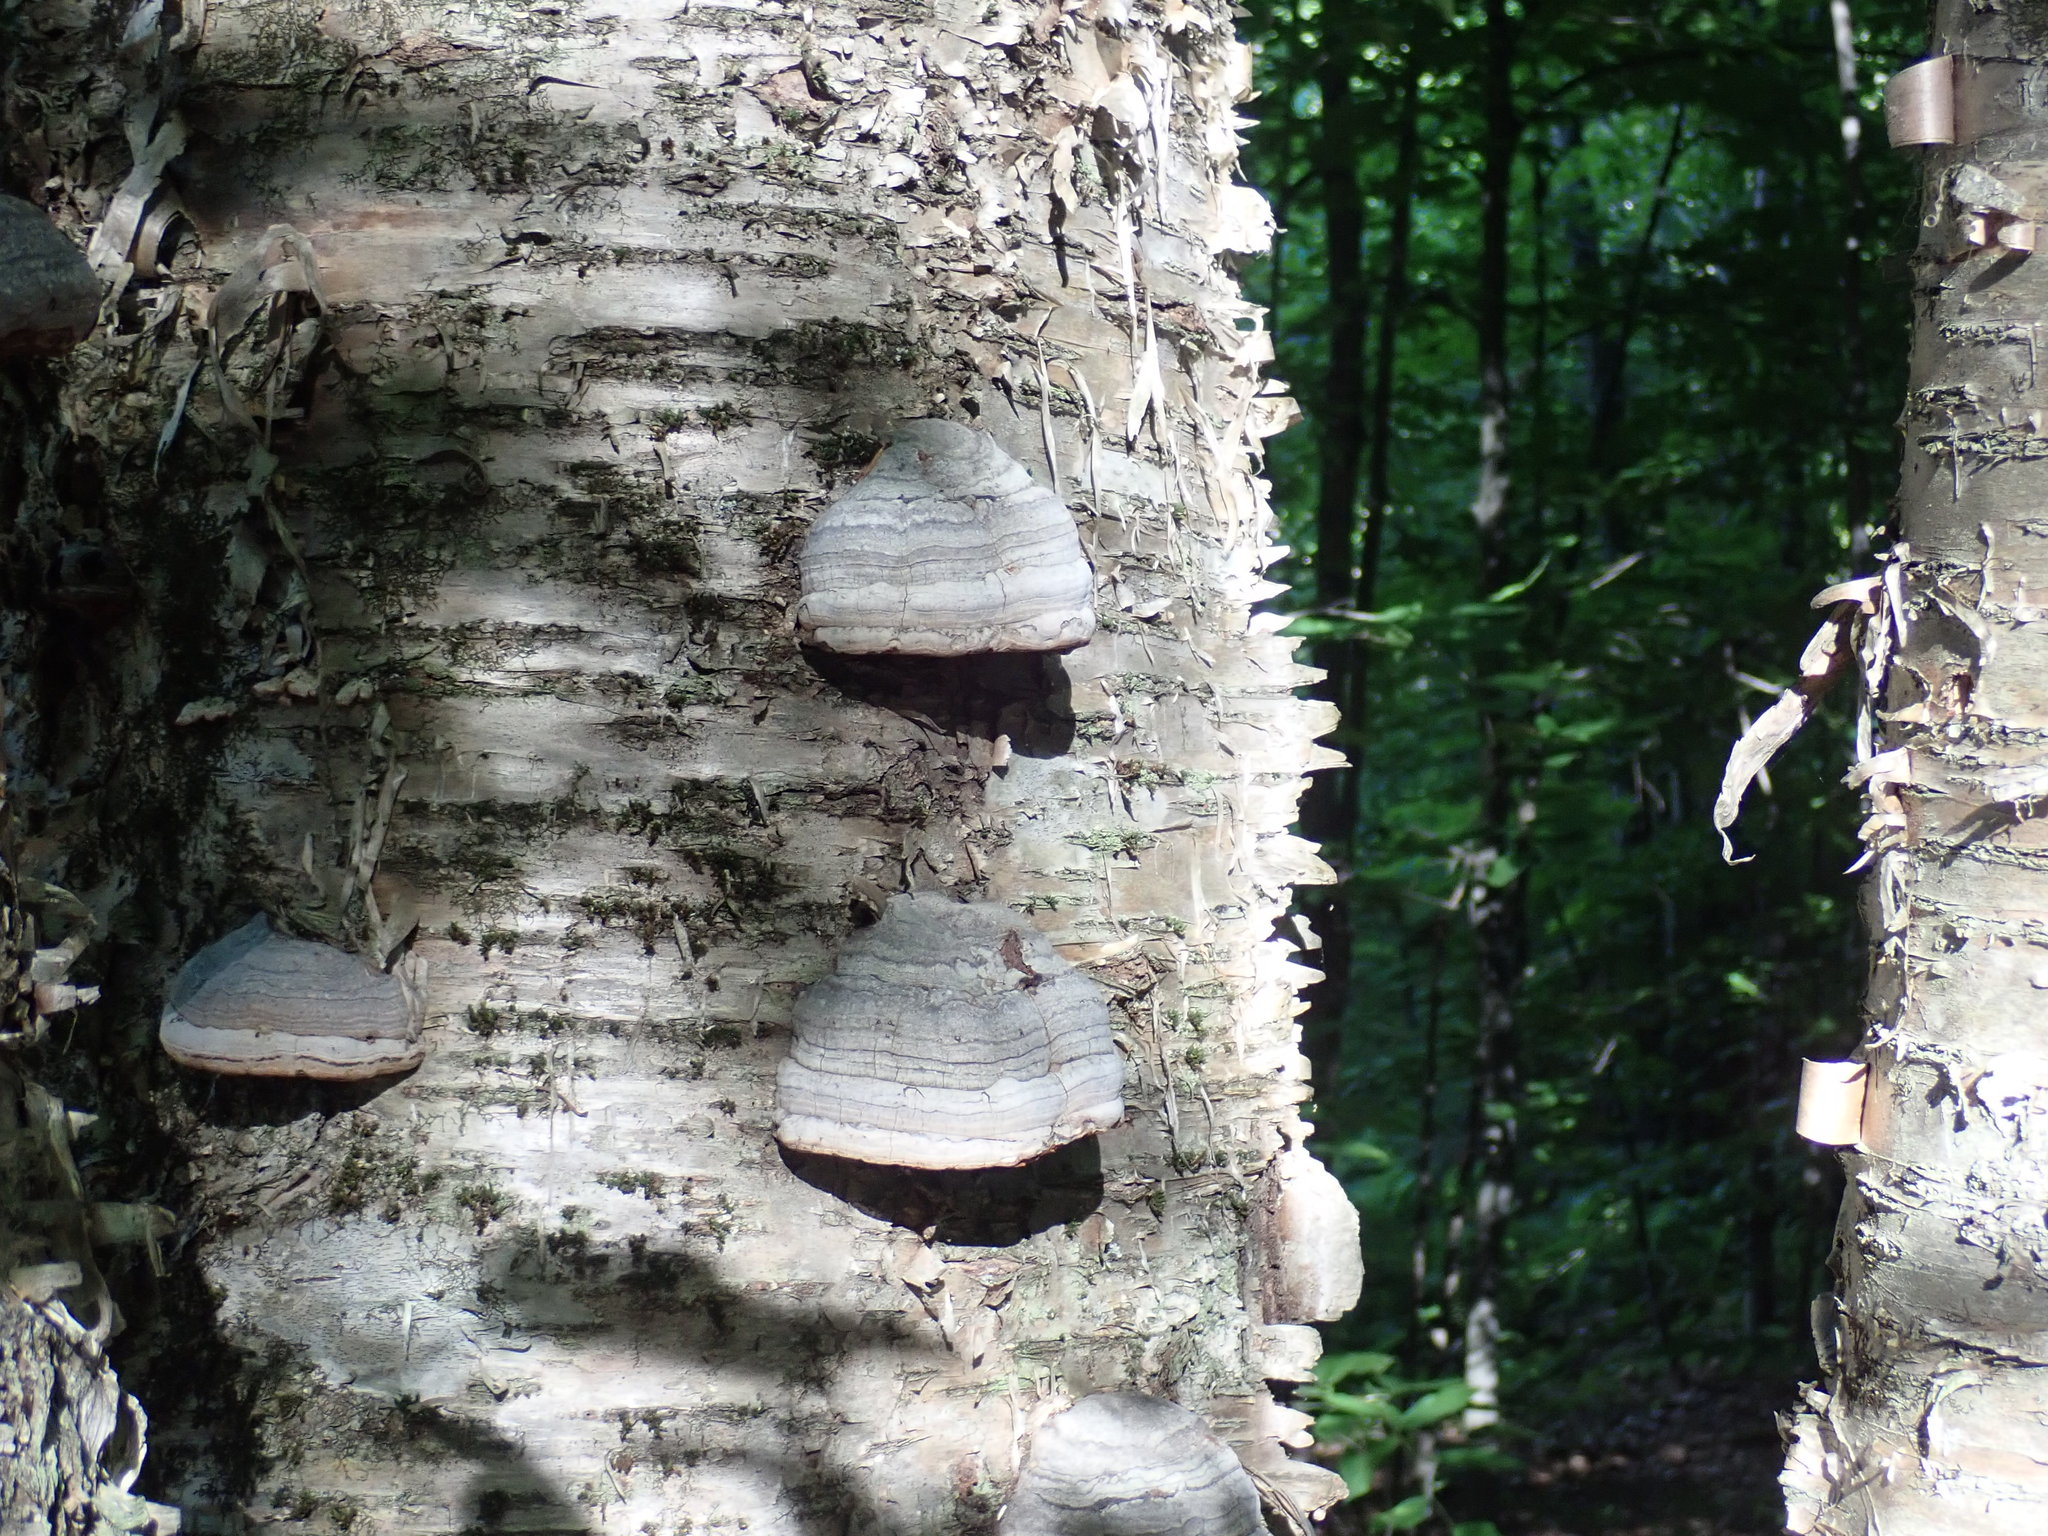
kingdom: Fungi
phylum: Basidiomycota
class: Agaricomycetes
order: Polyporales
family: Polyporaceae
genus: Fomes
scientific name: Fomes fomentarius
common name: Hoof fungus
